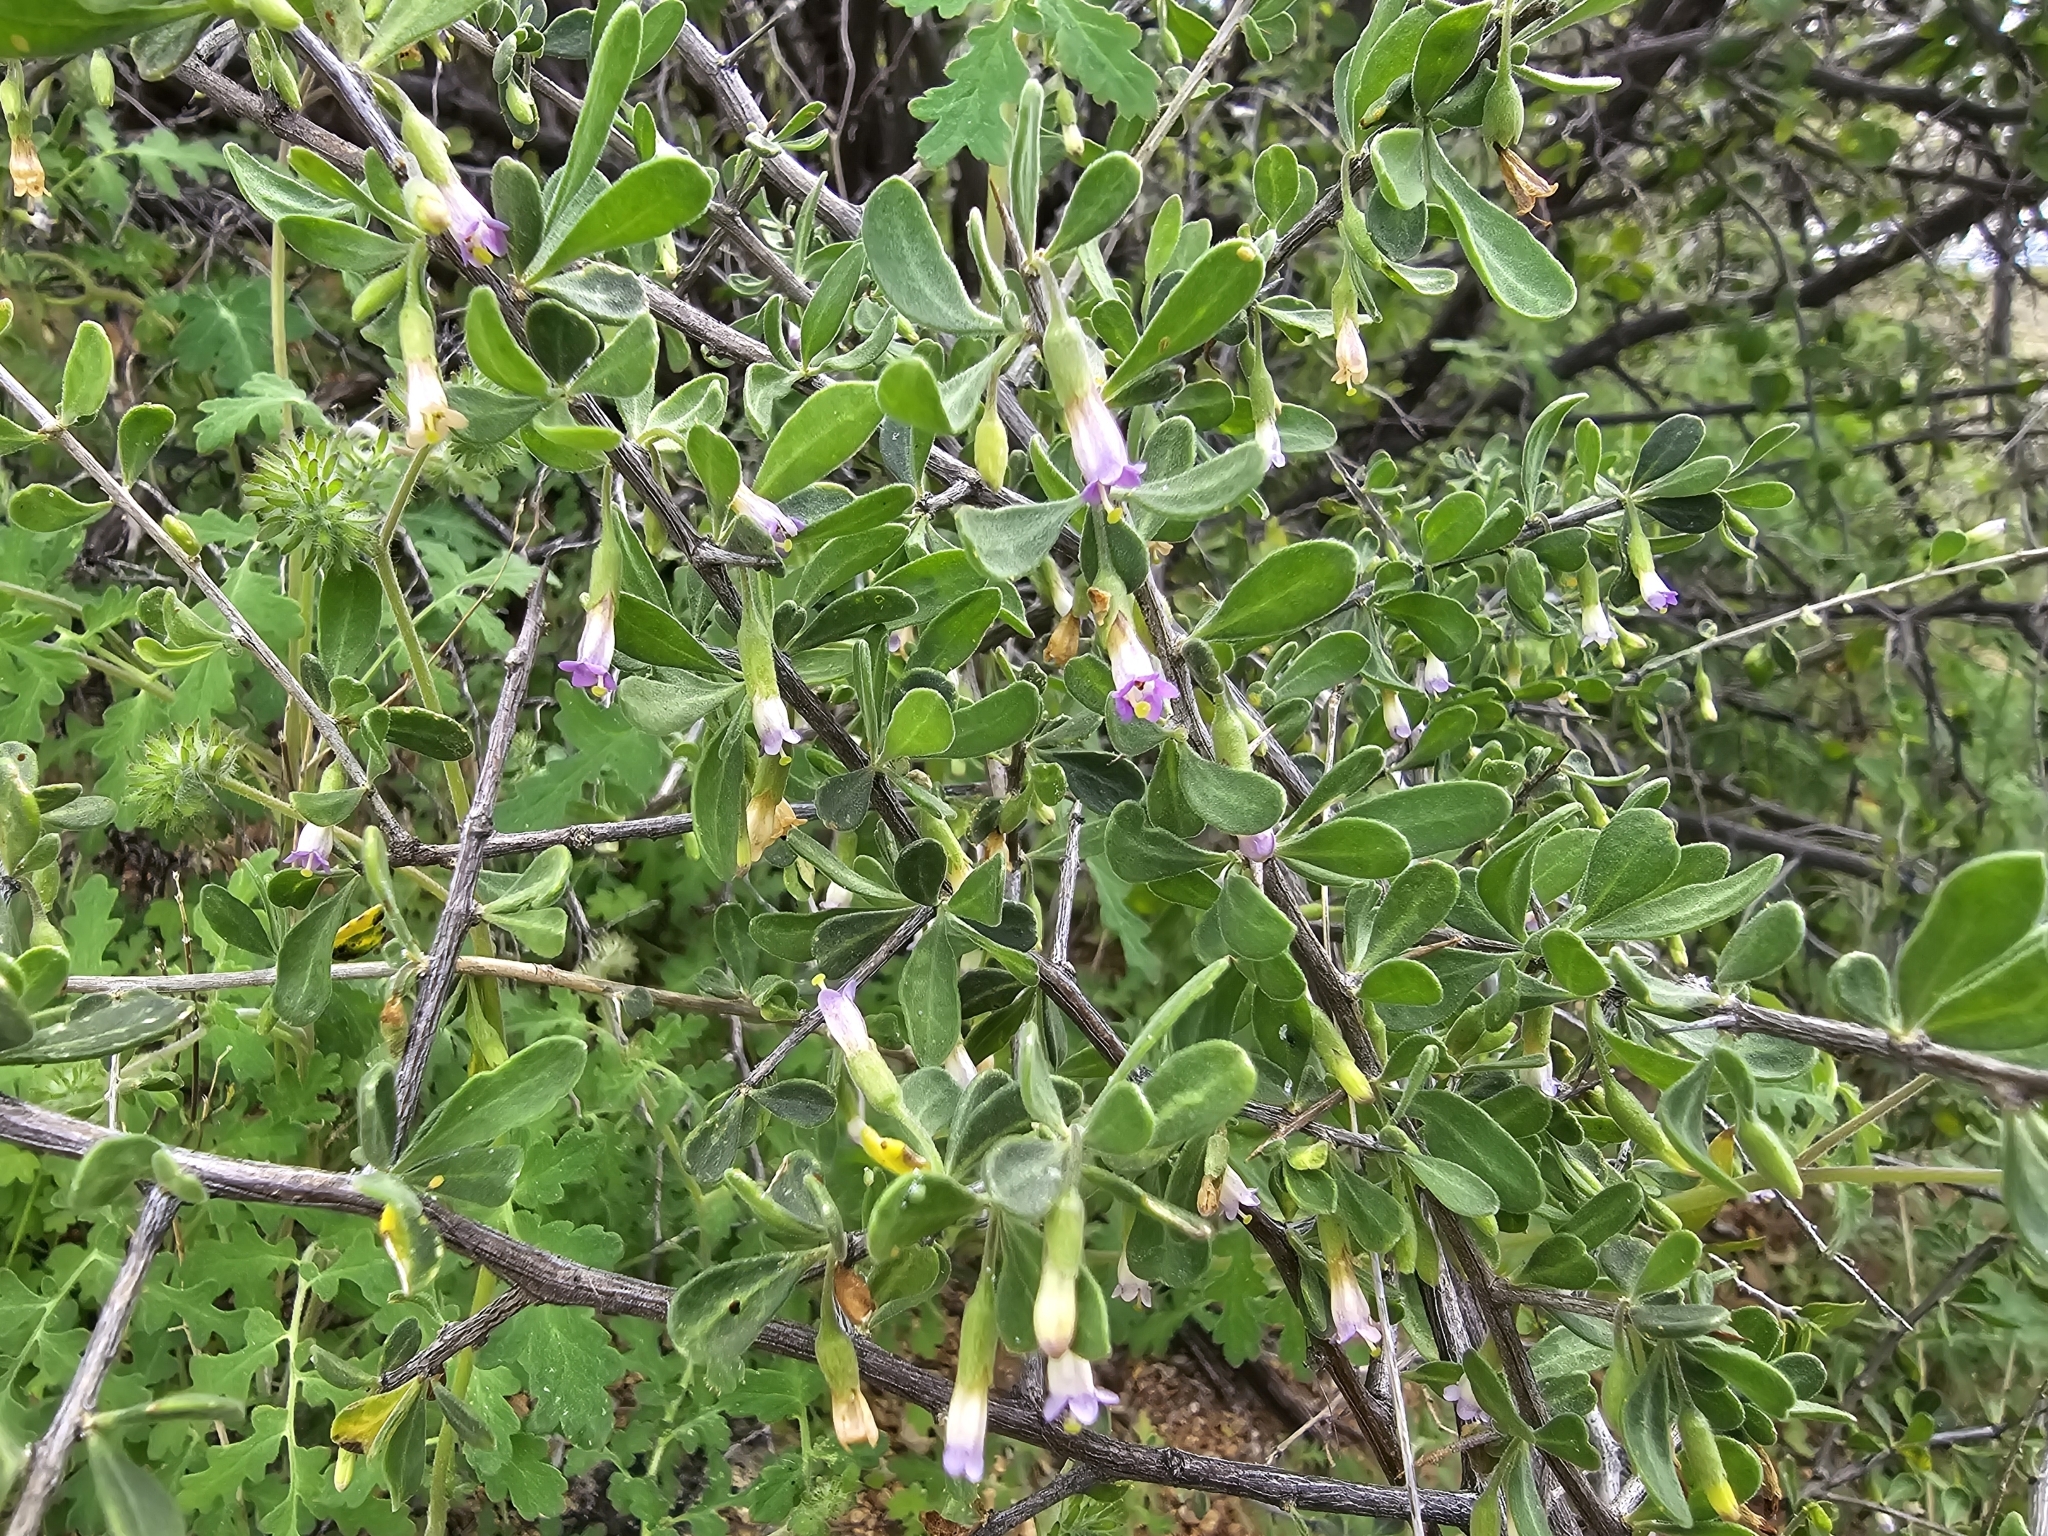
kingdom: Plantae
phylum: Tracheophyta
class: Magnoliopsida
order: Solanales
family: Solanaceae
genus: Lycium
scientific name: Lycium exsertum
